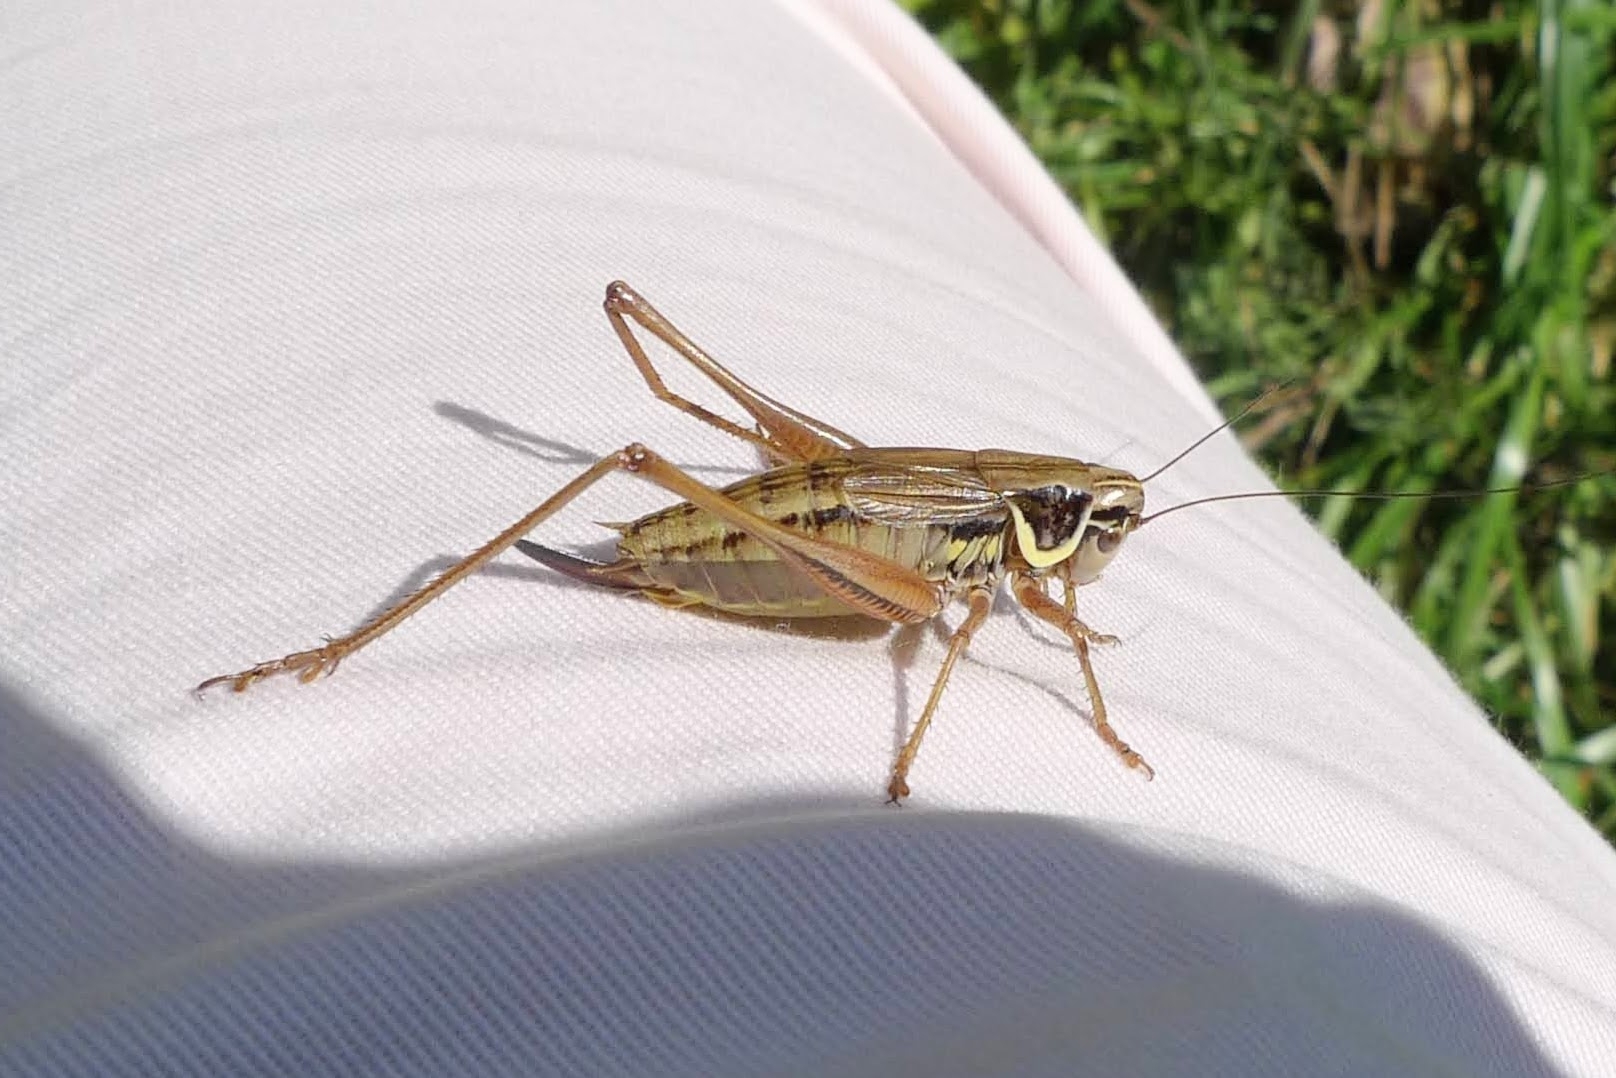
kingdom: Animalia
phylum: Arthropoda
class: Insecta
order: Orthoptera
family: Tettigoniidae
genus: Roeseliana
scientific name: Roeseliana roeselii
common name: Roesel's bush cricket
